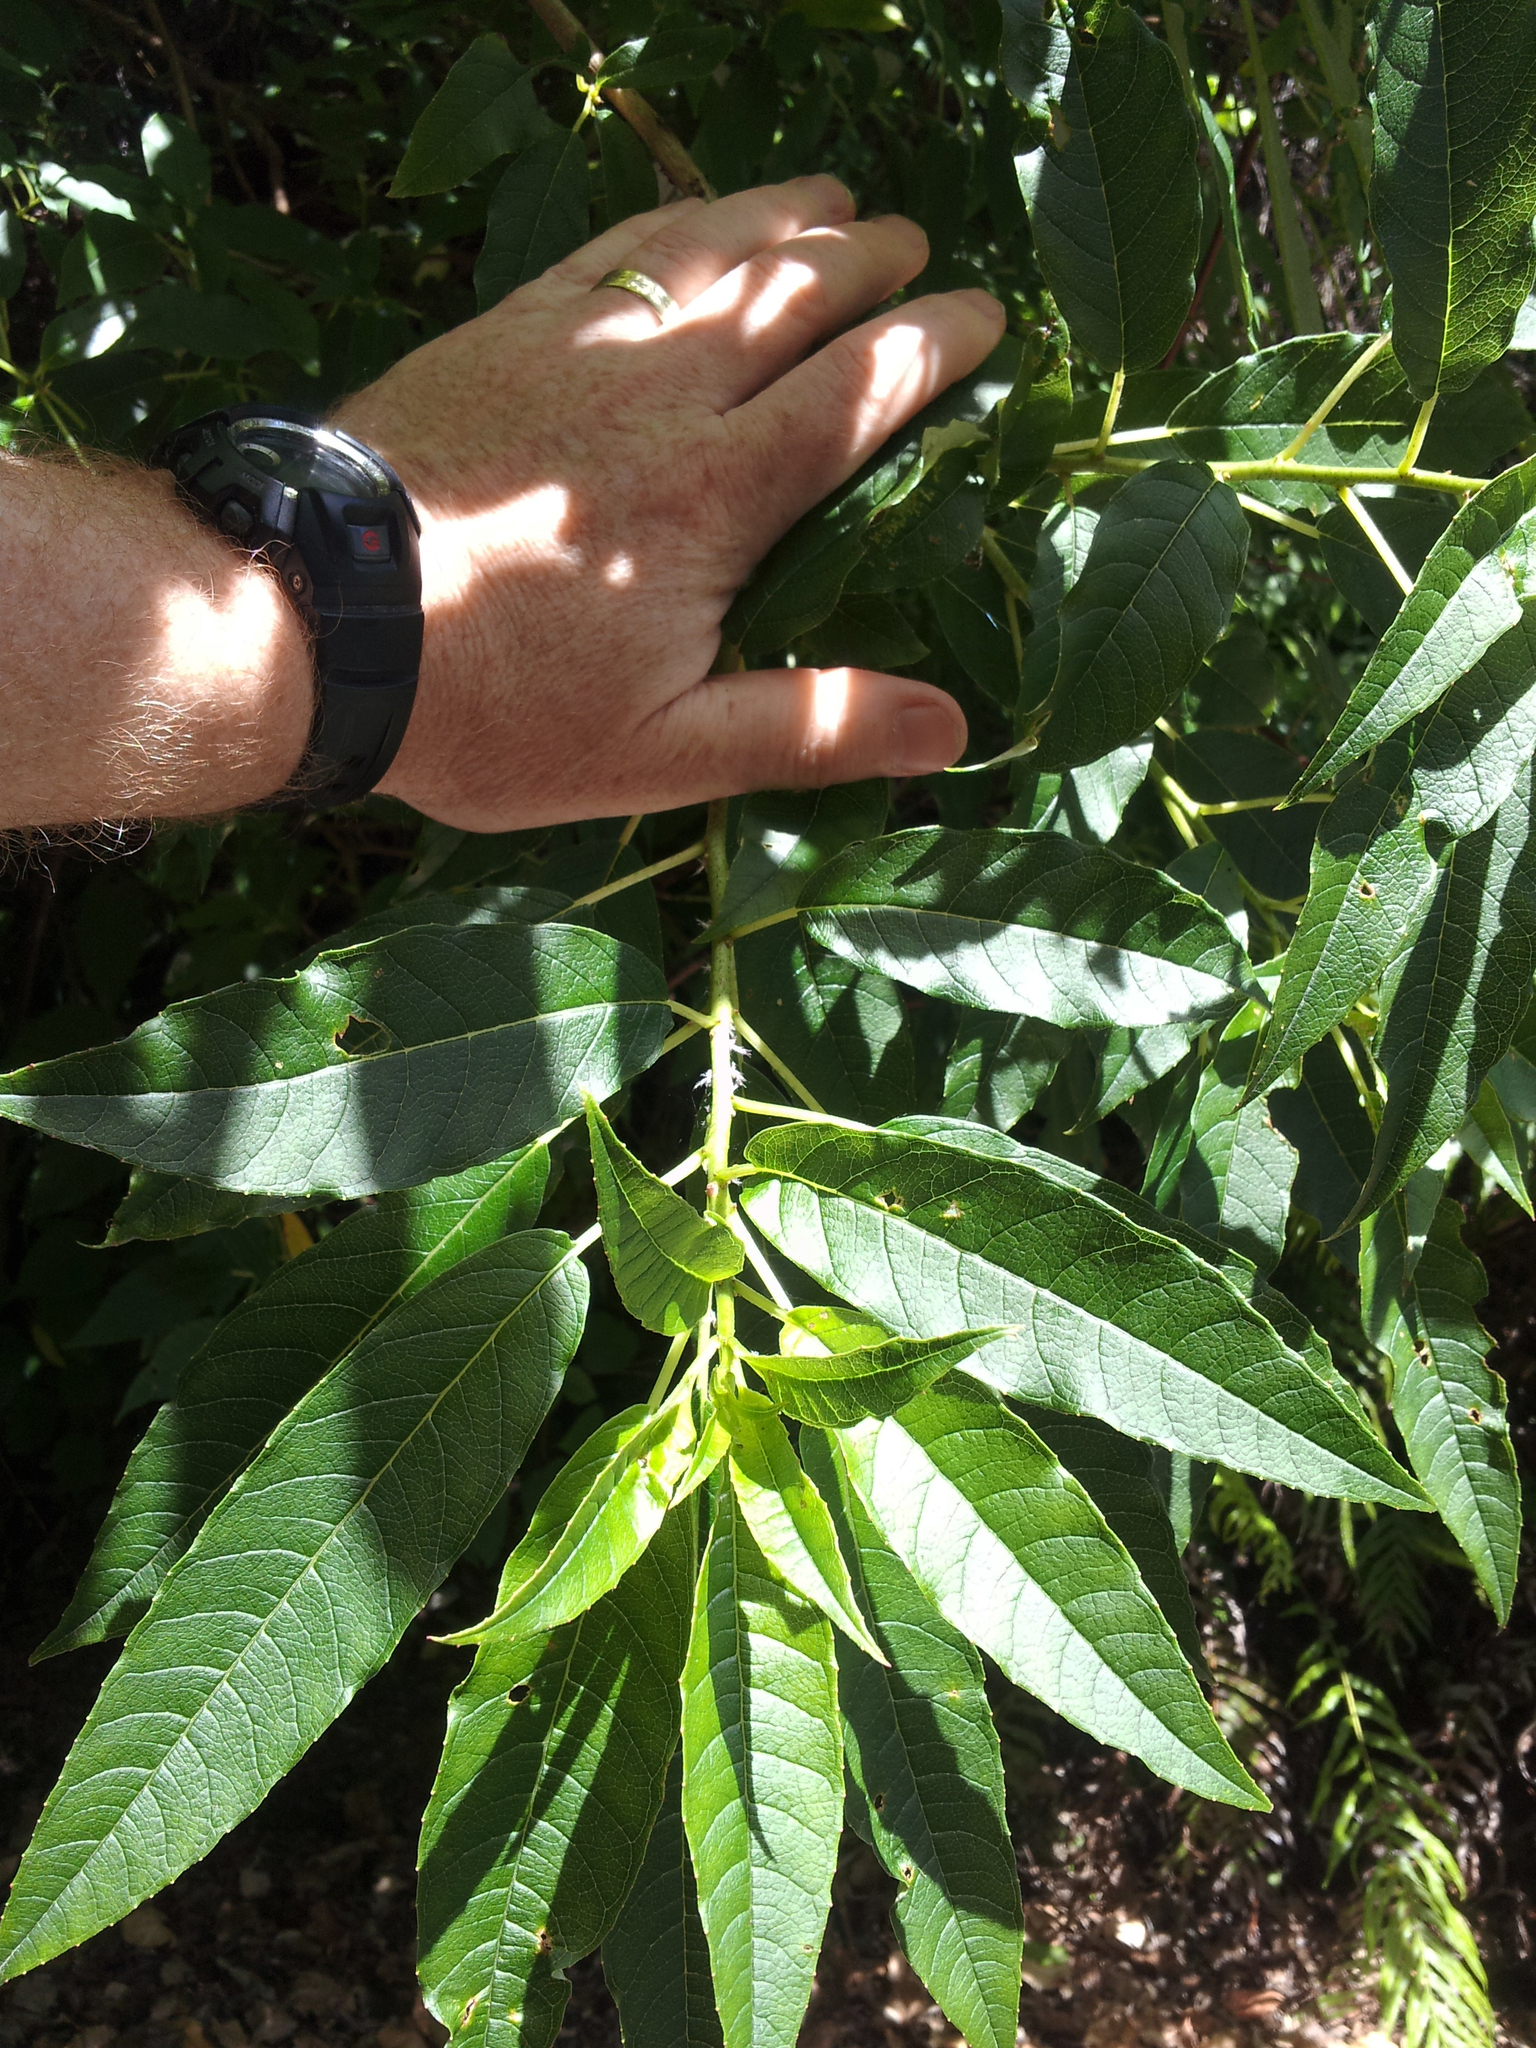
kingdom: Plantae
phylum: Tracheophyta
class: Magnoliopsida
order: Myrtales
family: Onagraceae
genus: Fuchsia
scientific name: Fuchsia excorticata
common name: Tree fuchsia
